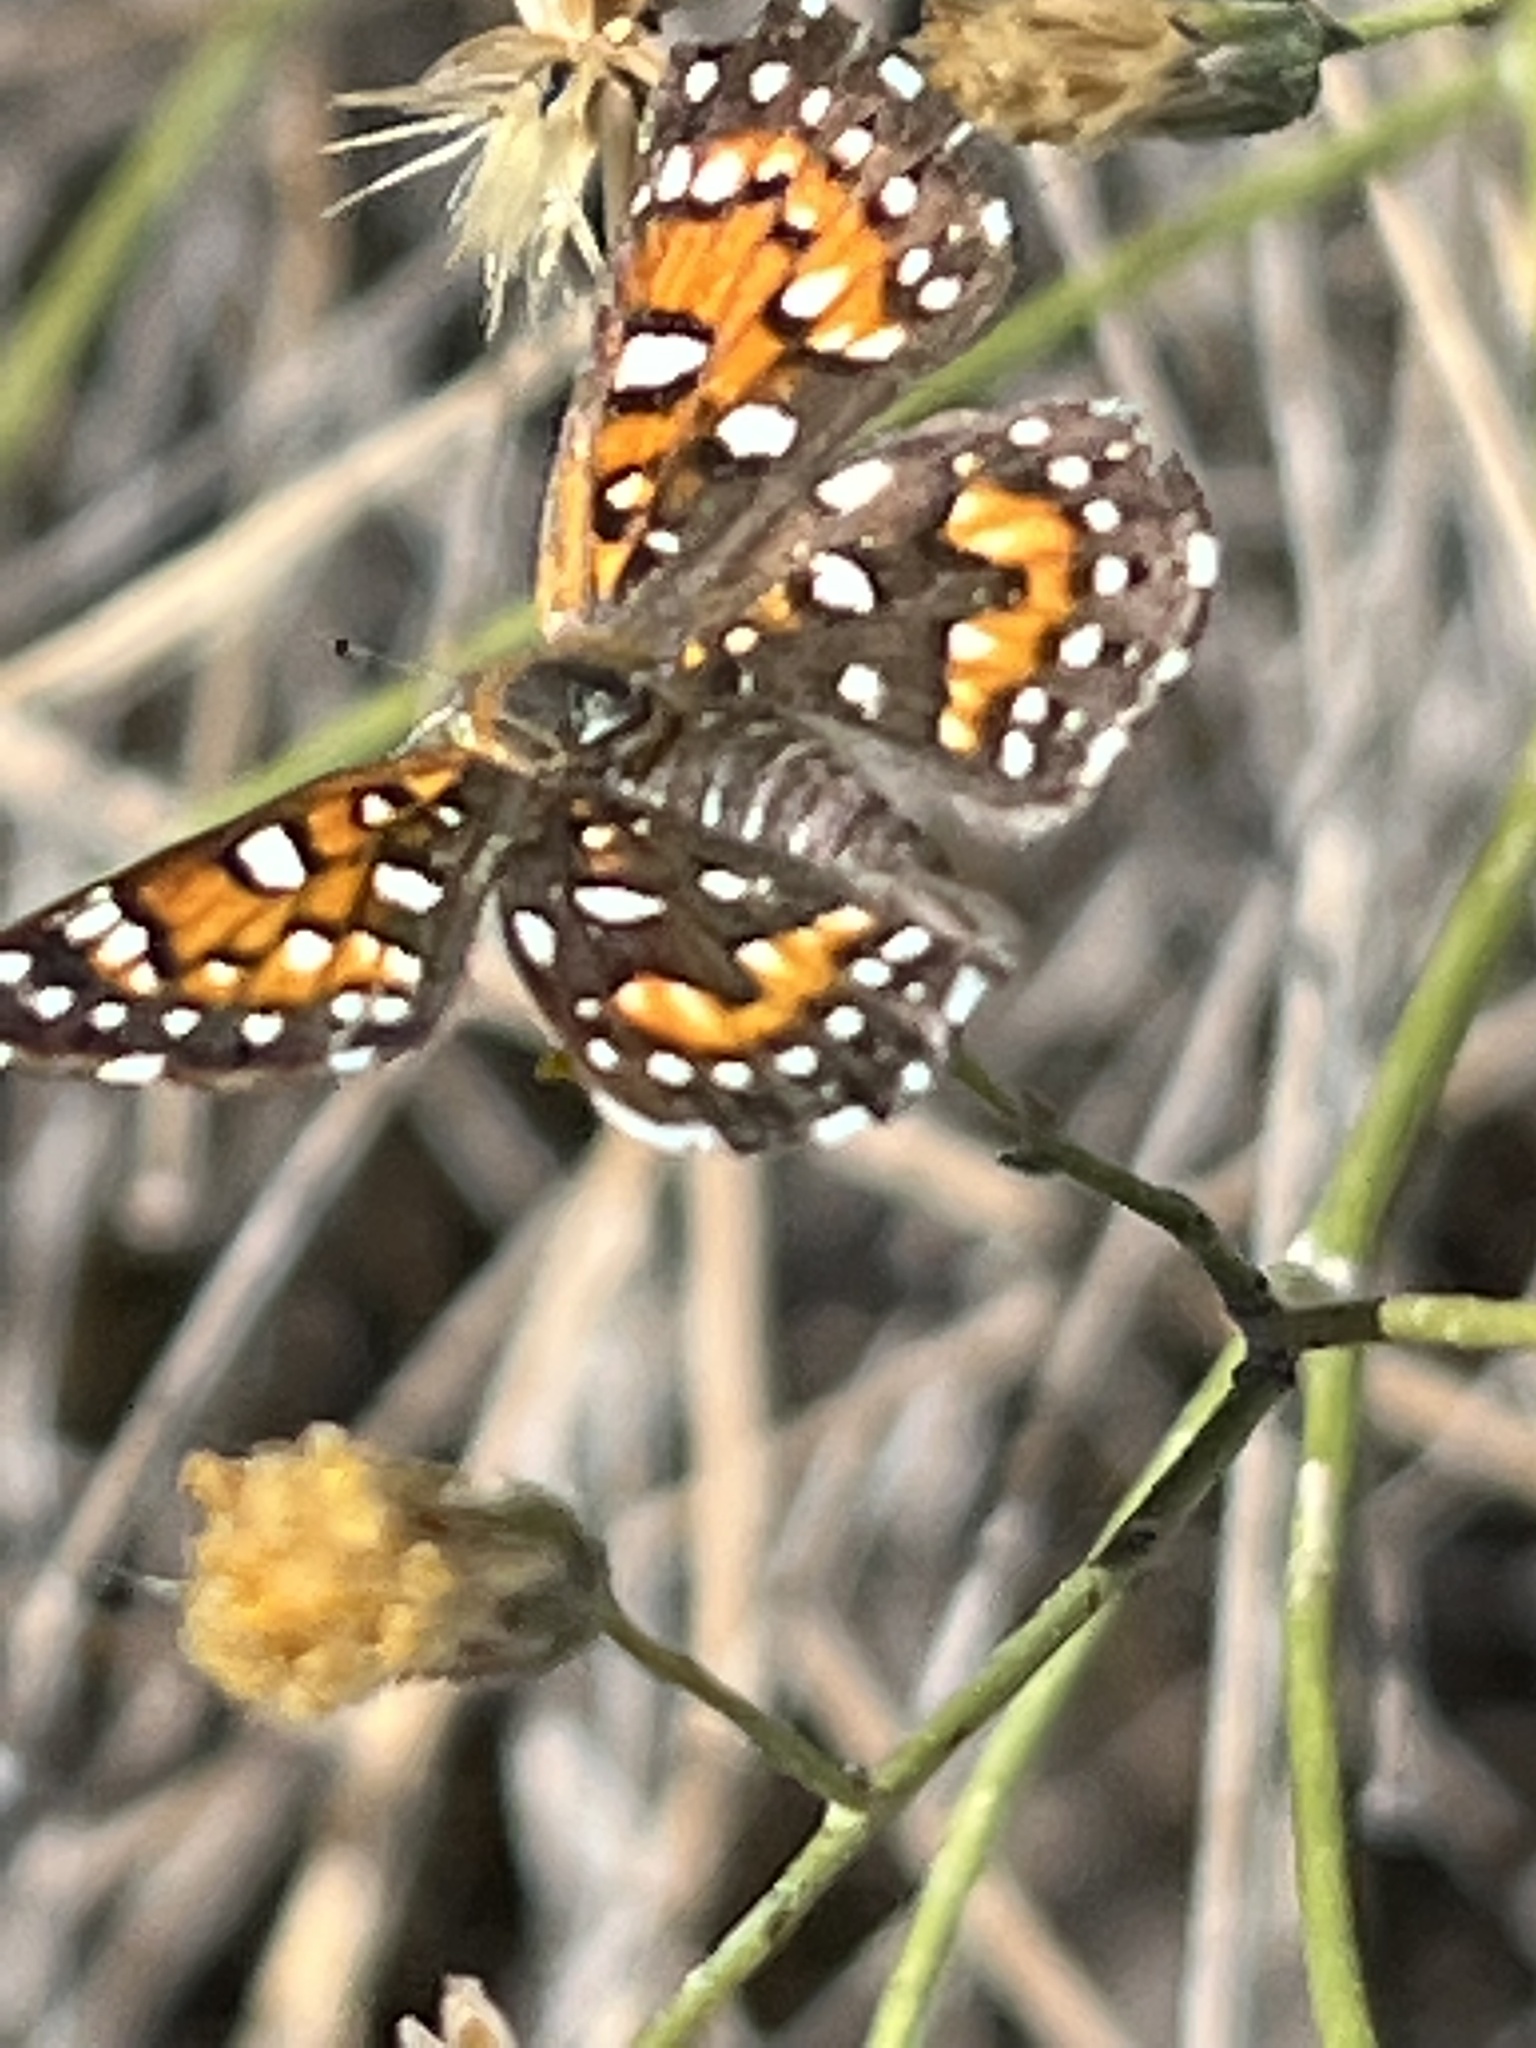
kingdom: Animalia
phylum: Arthropoda
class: Insecta
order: Lepidoptera
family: Riodinidae
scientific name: Riodinidae
